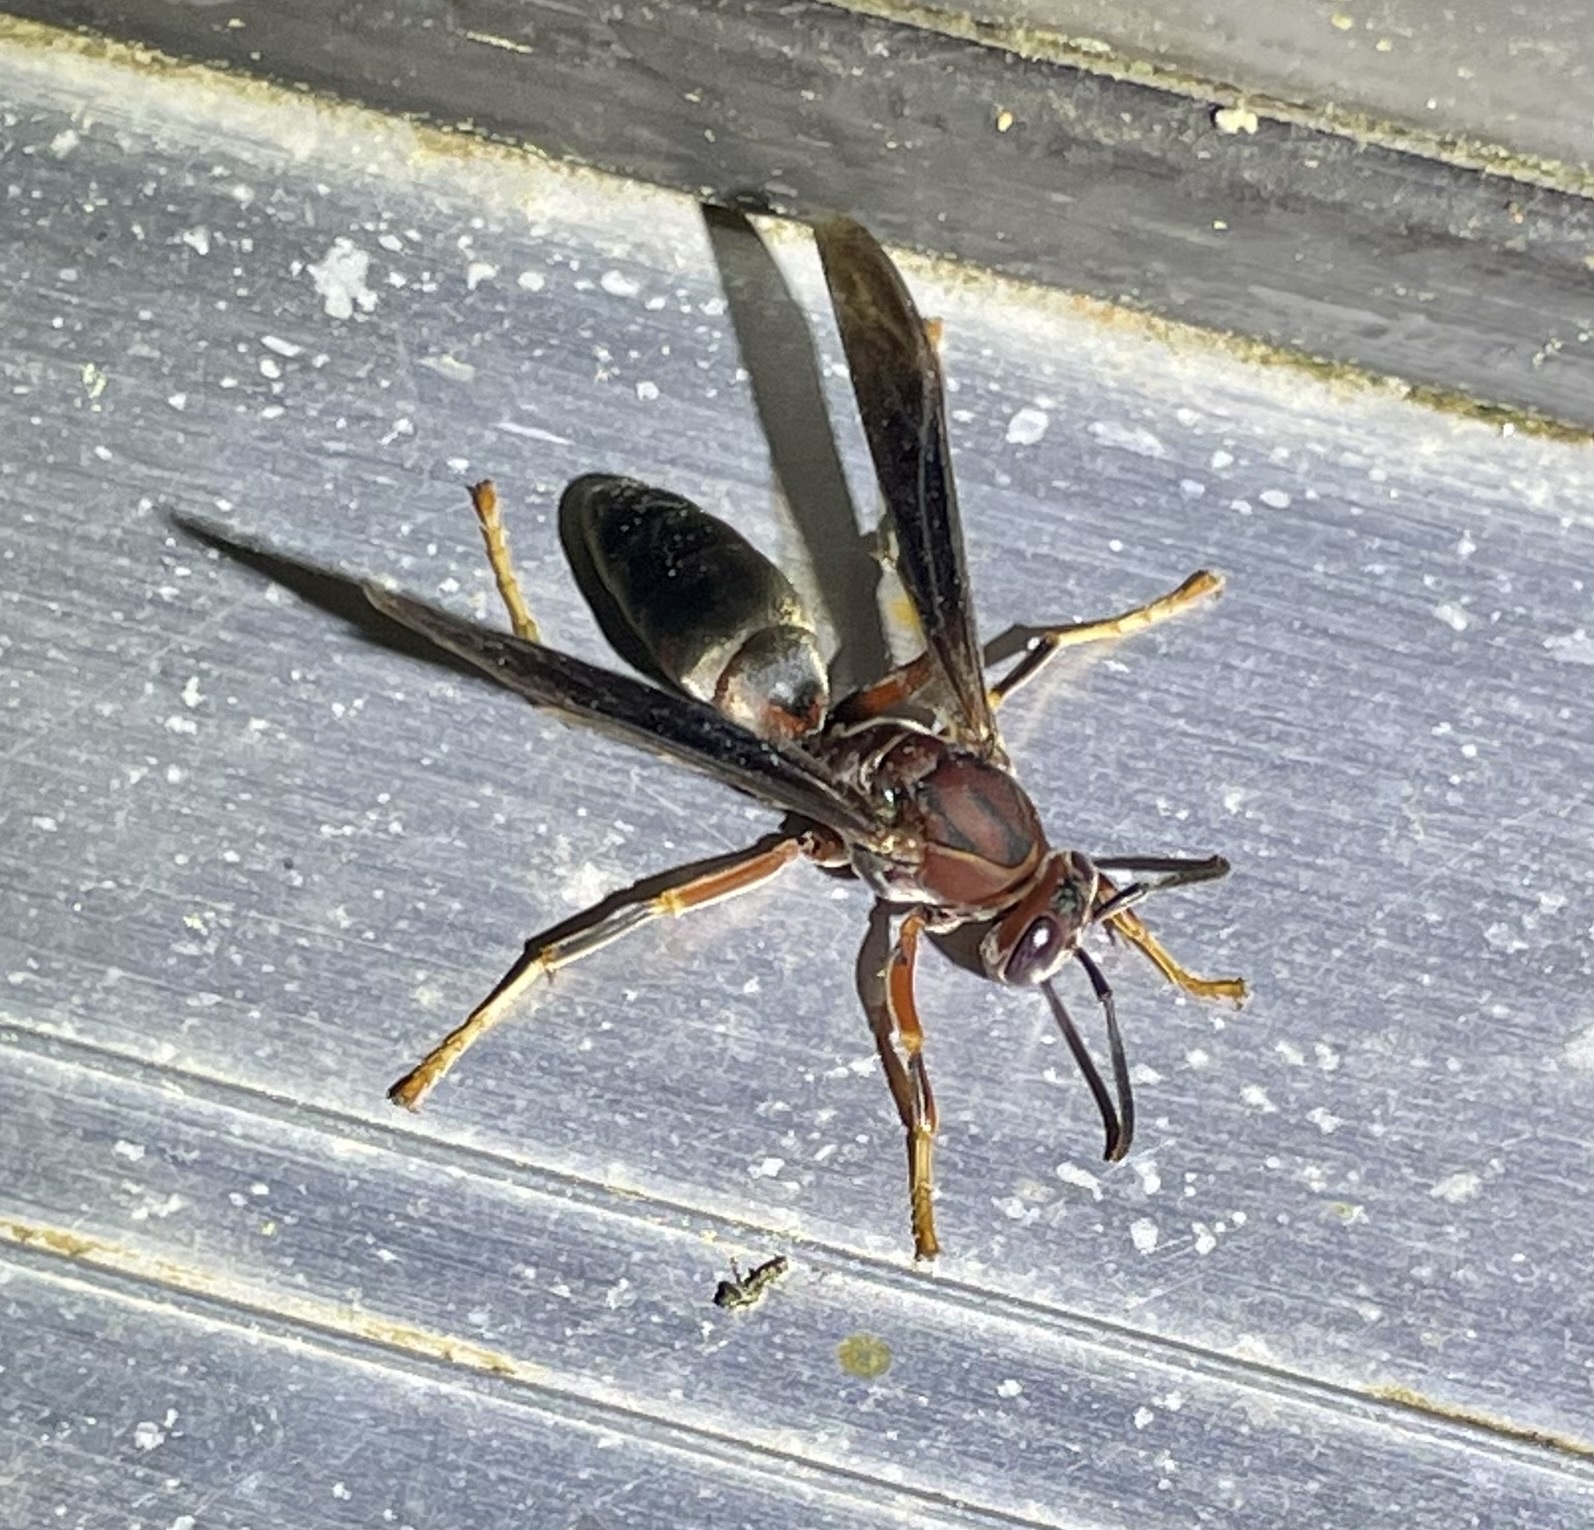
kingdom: Animalia
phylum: Arthropoda
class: Insecta
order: Hymenoptera
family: Eumenidae
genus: Polistes
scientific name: Polistes metricus
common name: Metric paper wasp
